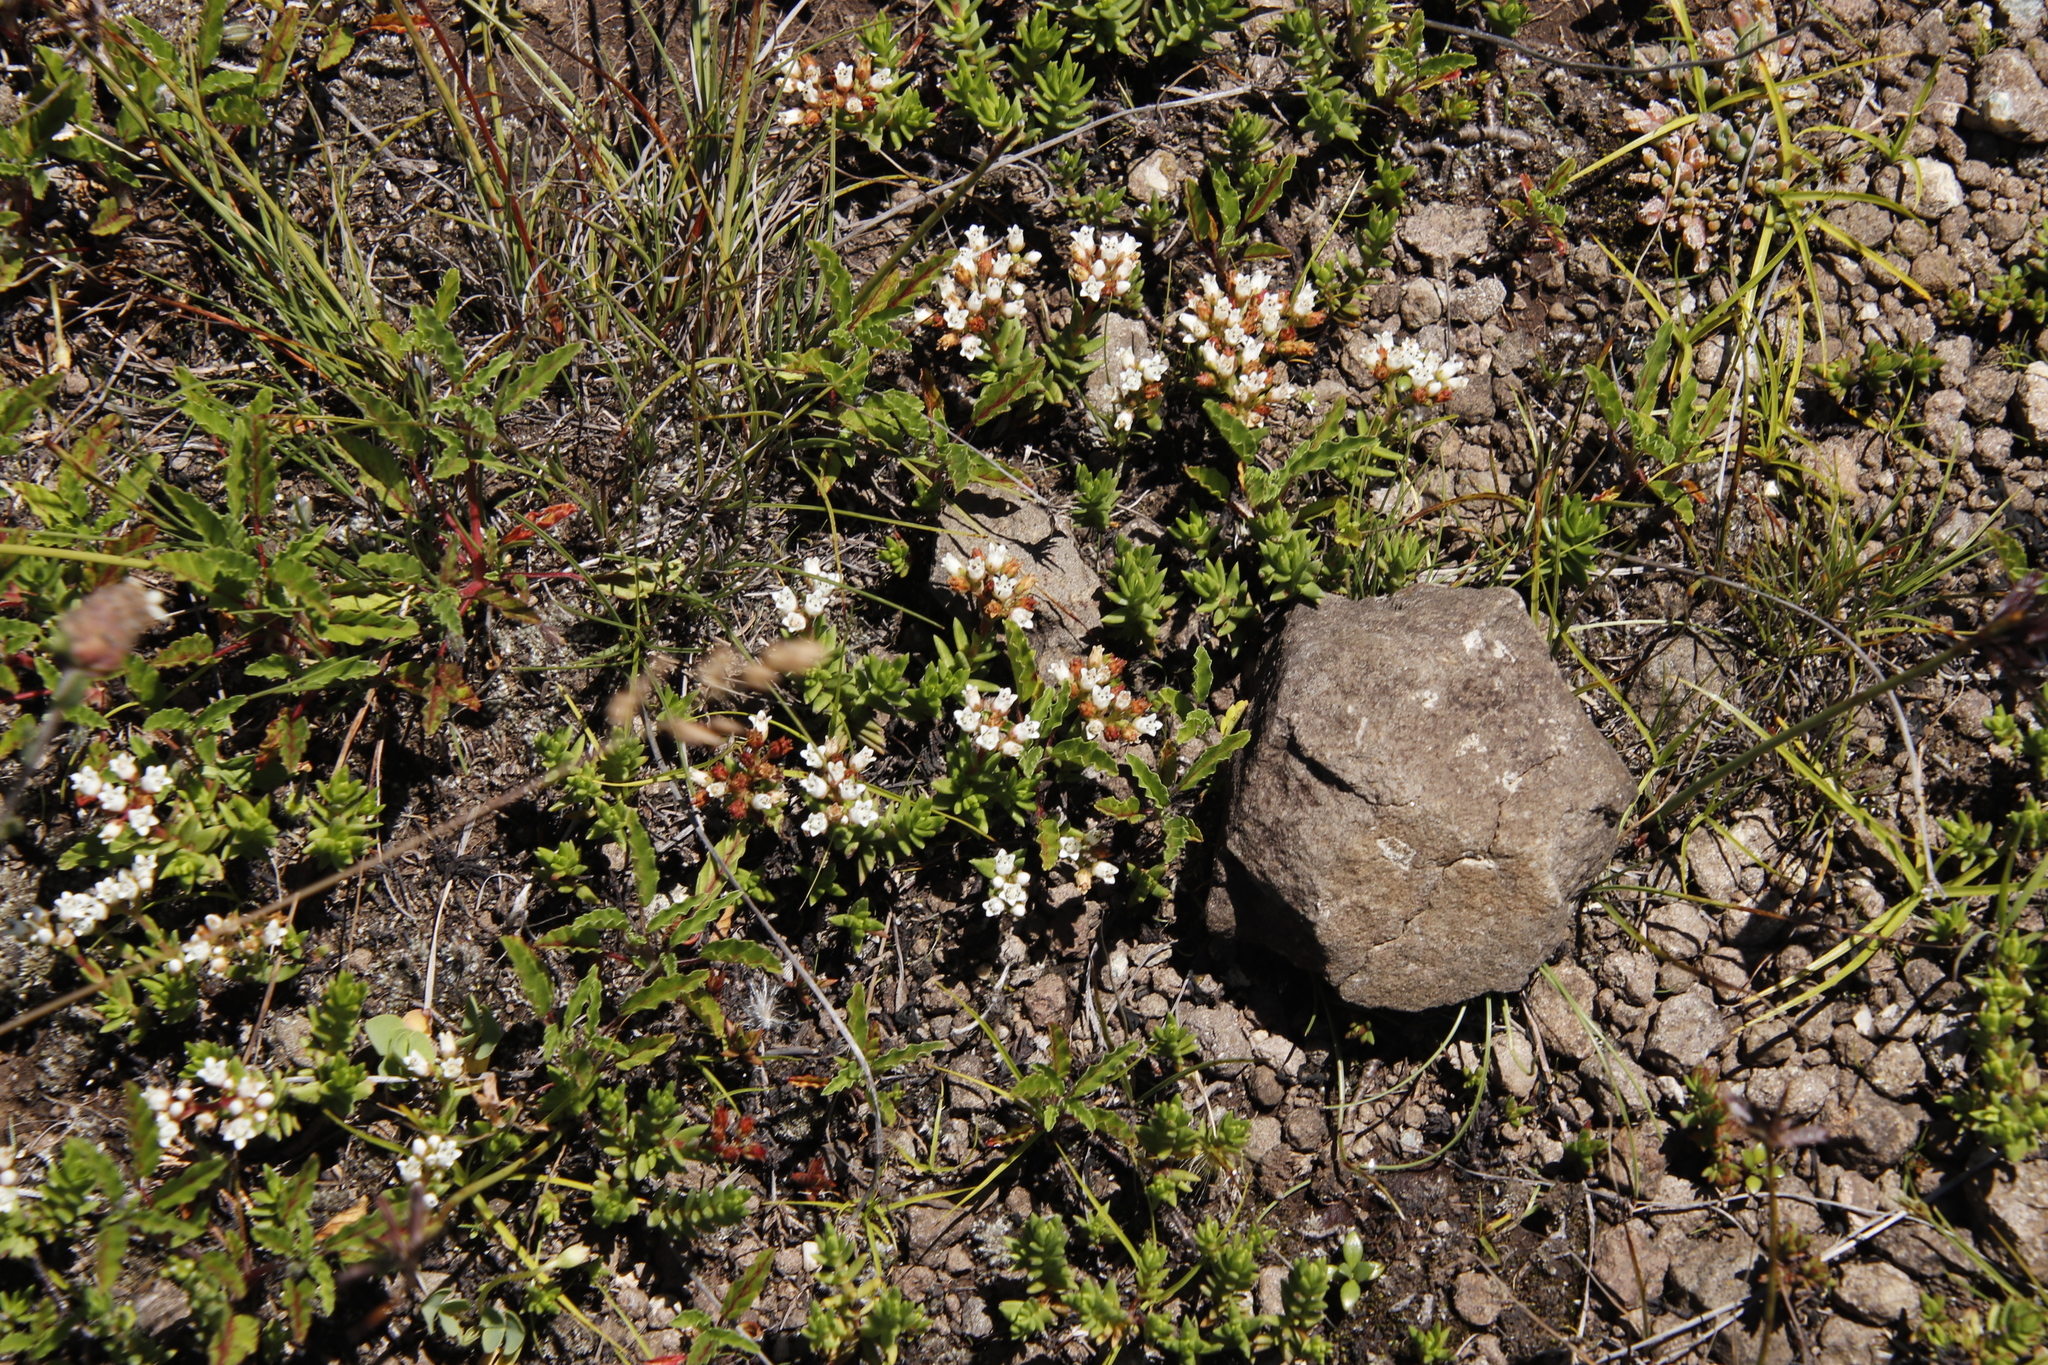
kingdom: Plantae
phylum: Tracheophyta
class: Magnoliopsida
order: Saxifragales
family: Crassulaceae
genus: Crassula
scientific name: Crassula dependens
